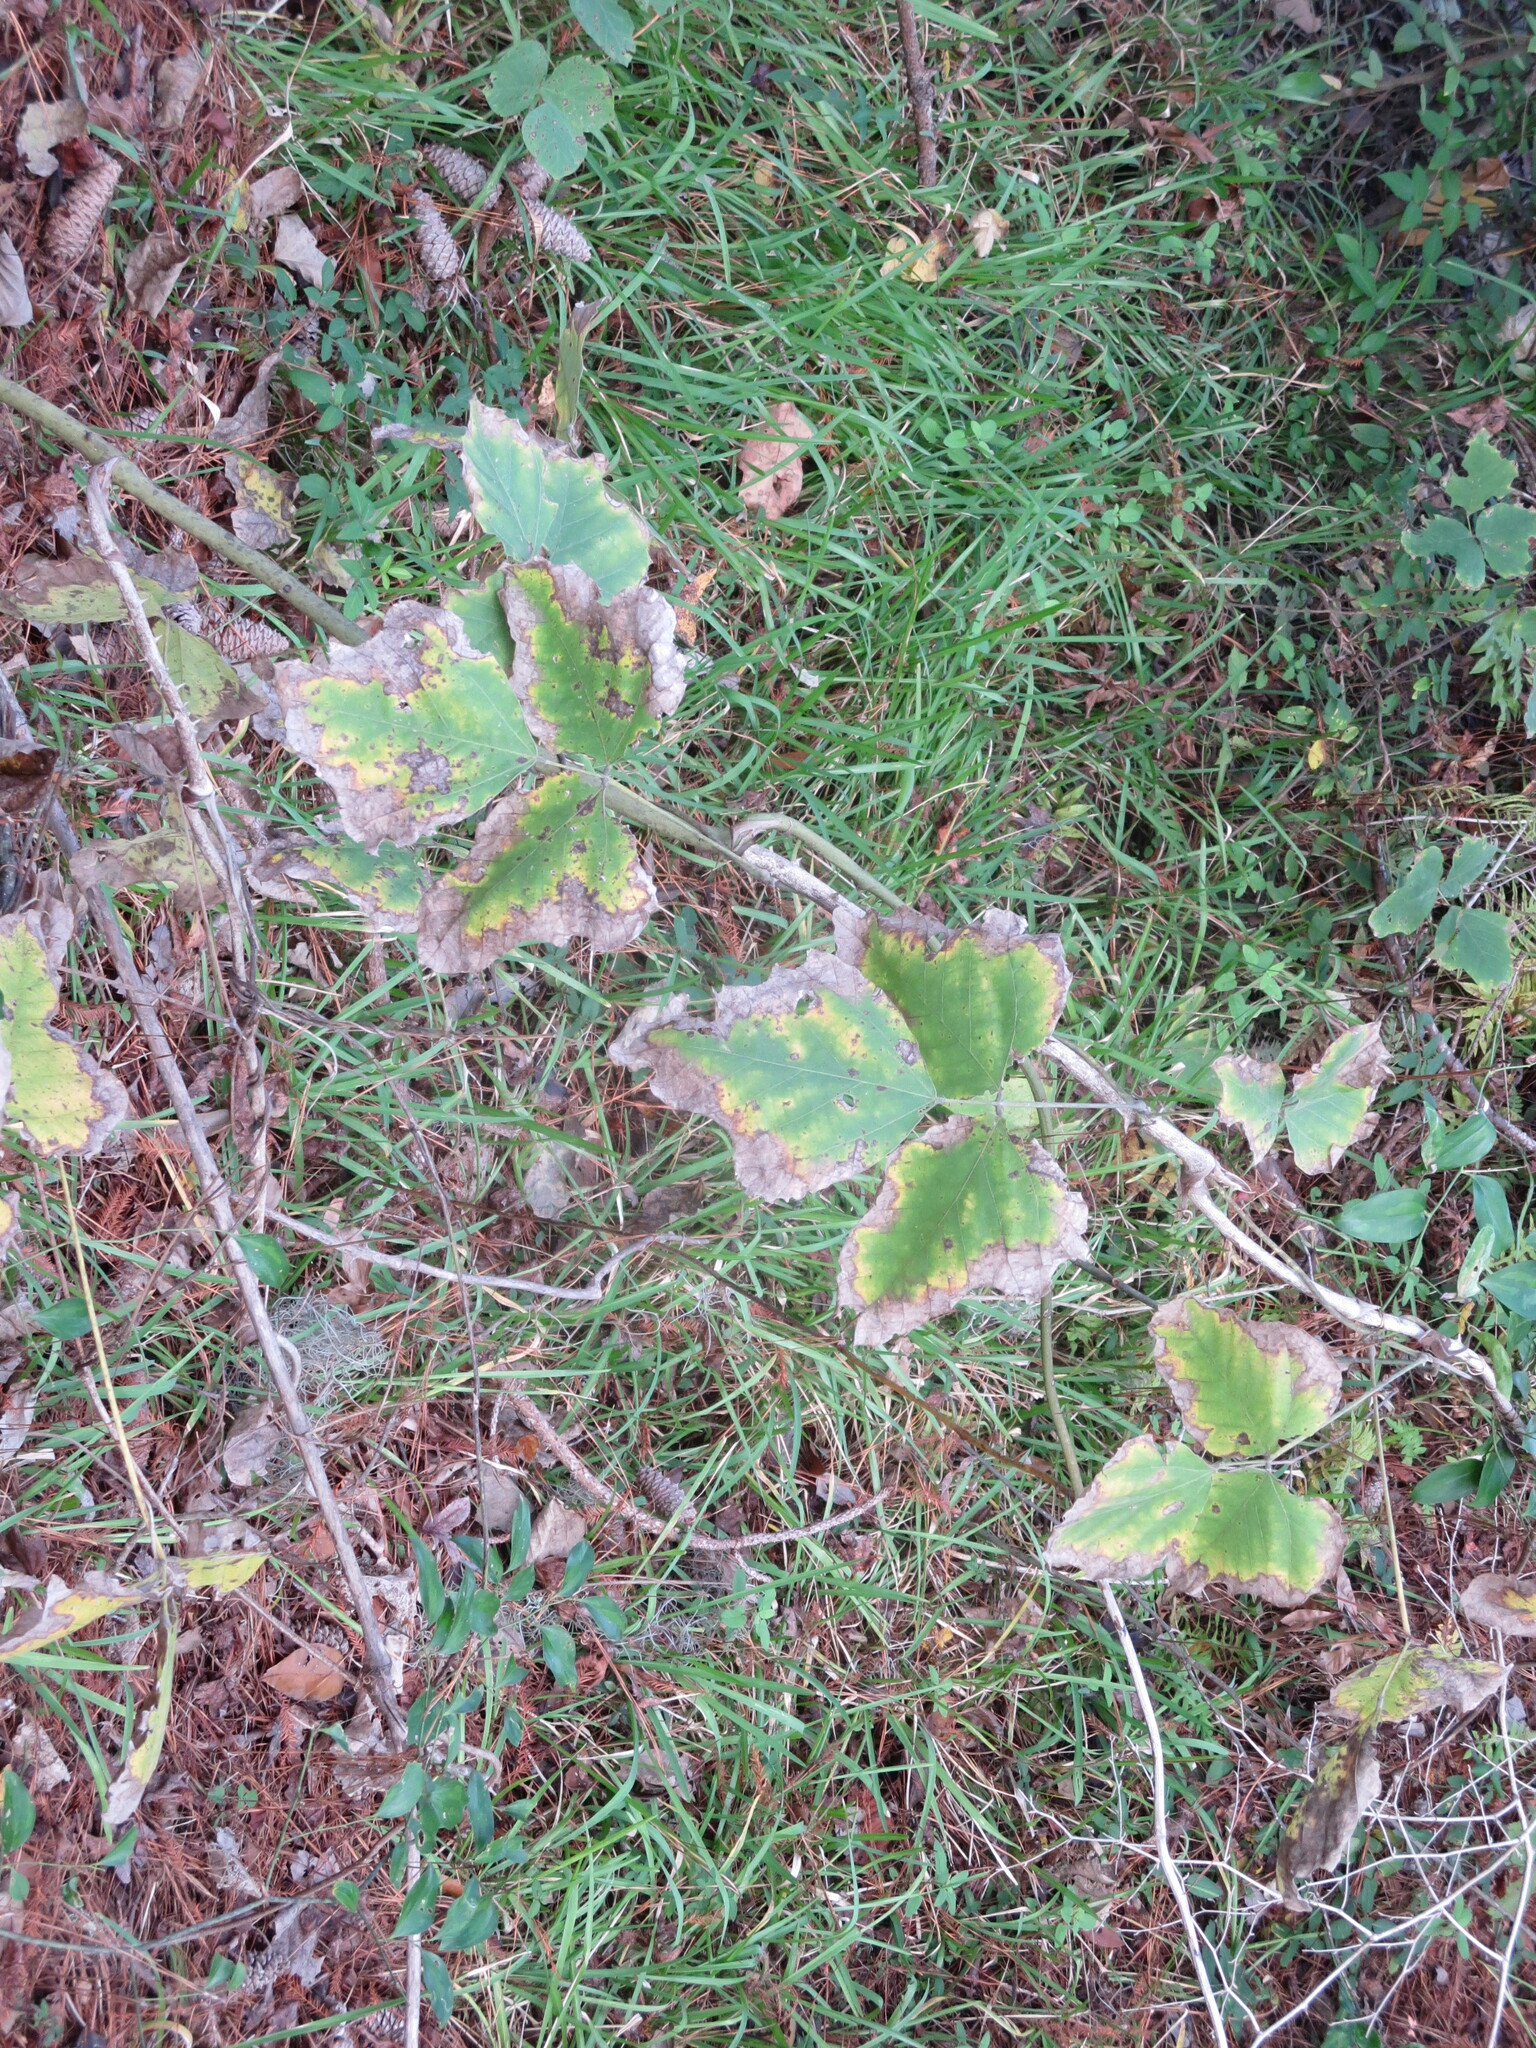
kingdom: Plantae
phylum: Tracheophyta
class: Magnoliopsida
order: Fabales
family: Fabaceae
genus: Pueraria
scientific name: Pueraria montana
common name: Kudzu
